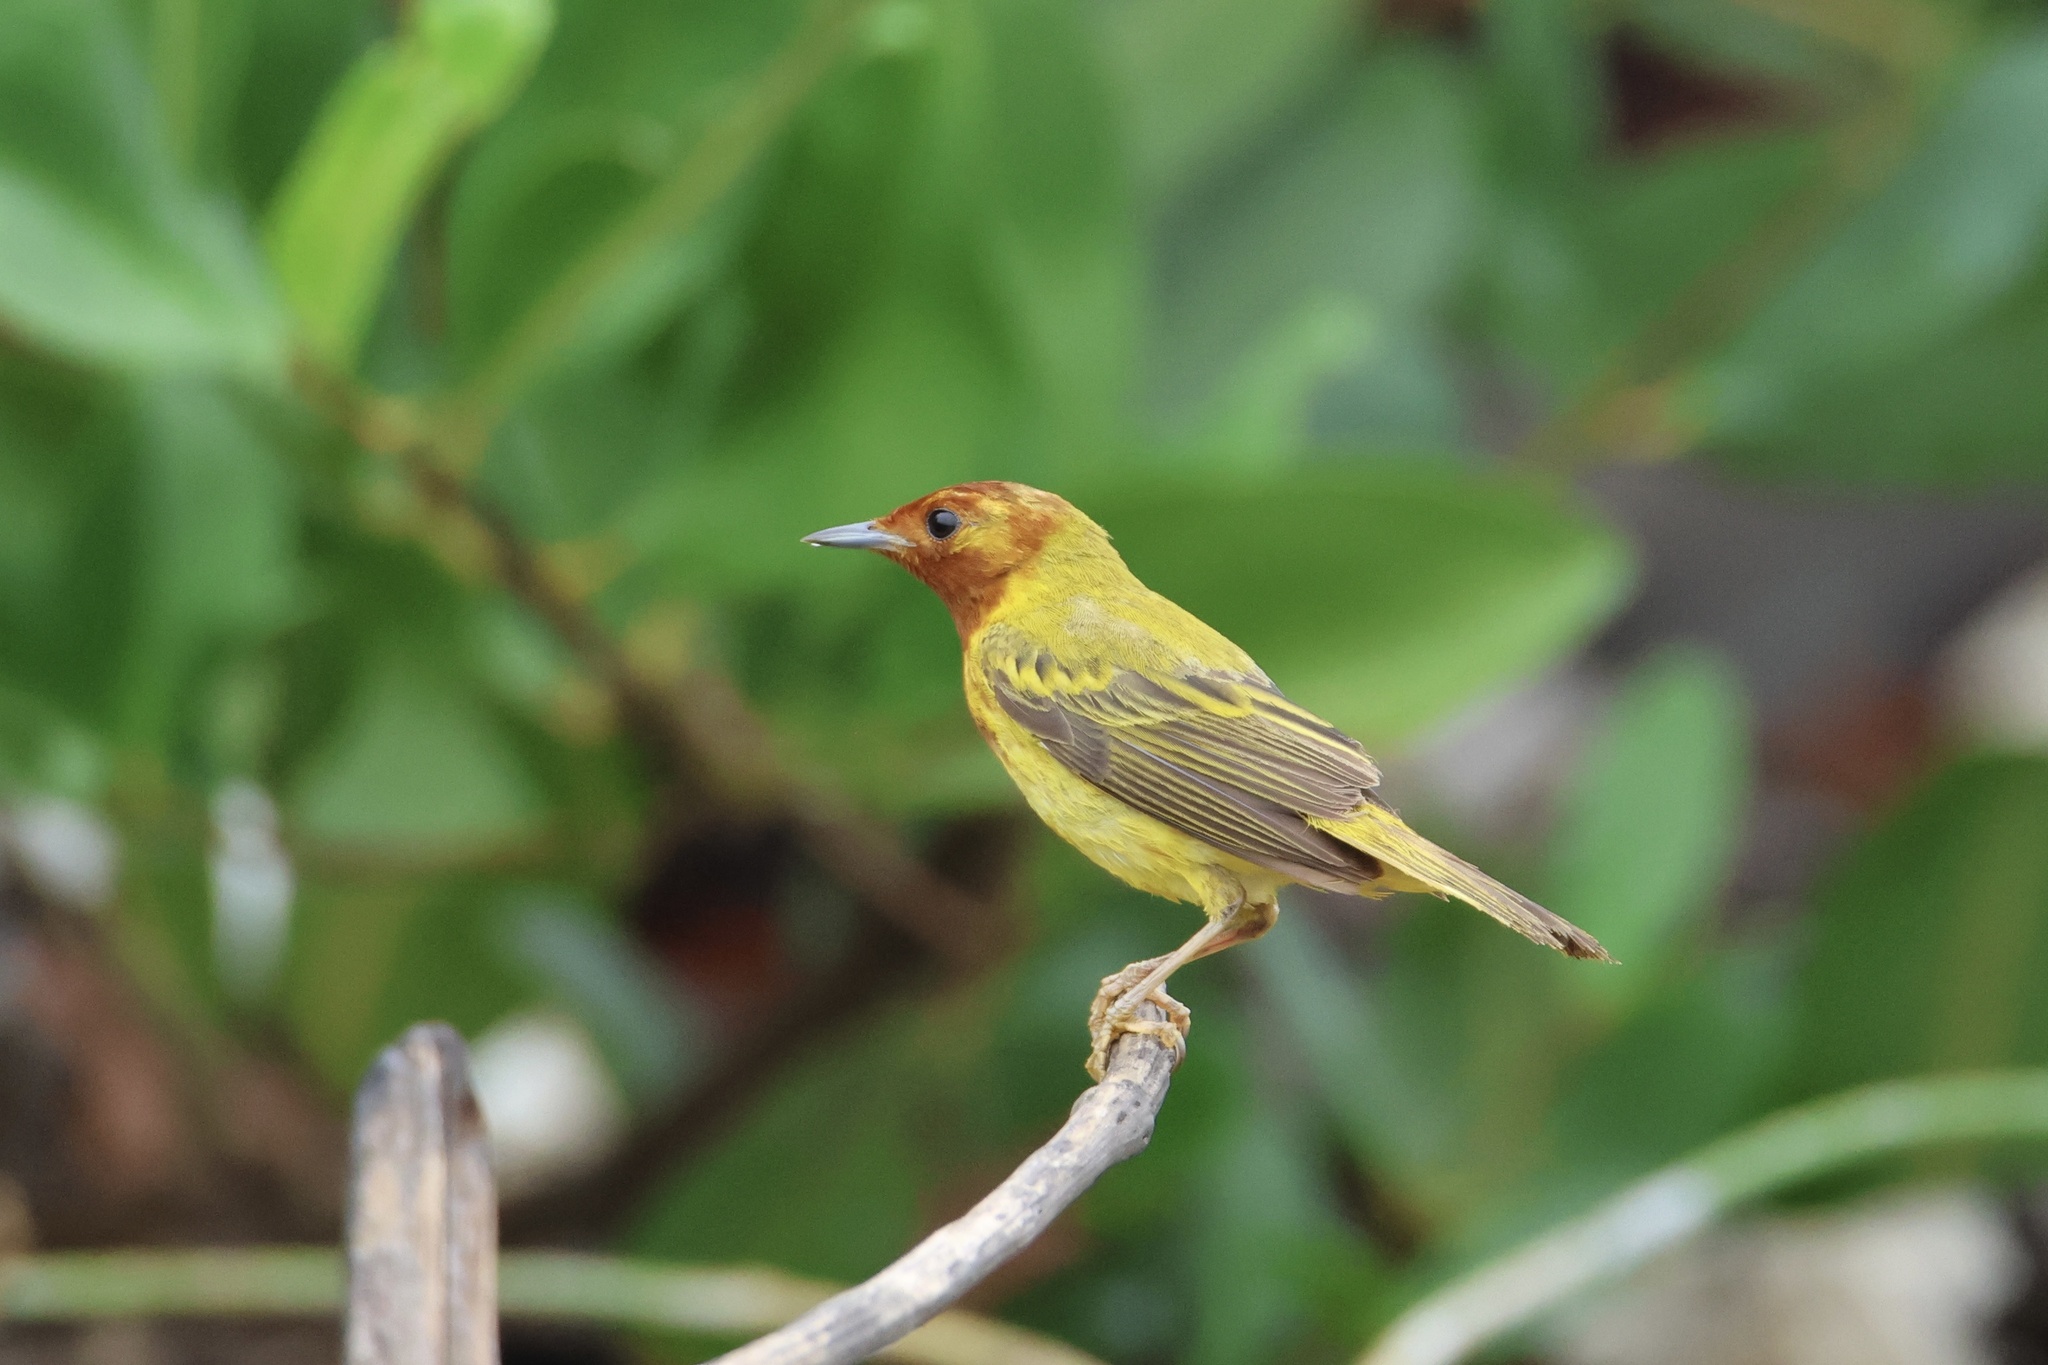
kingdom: Animalia
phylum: Chordata
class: Aves
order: Passeriformes
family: Parulidae
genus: Setophaga
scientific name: Setophaga petechia
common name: Yellow warbler
